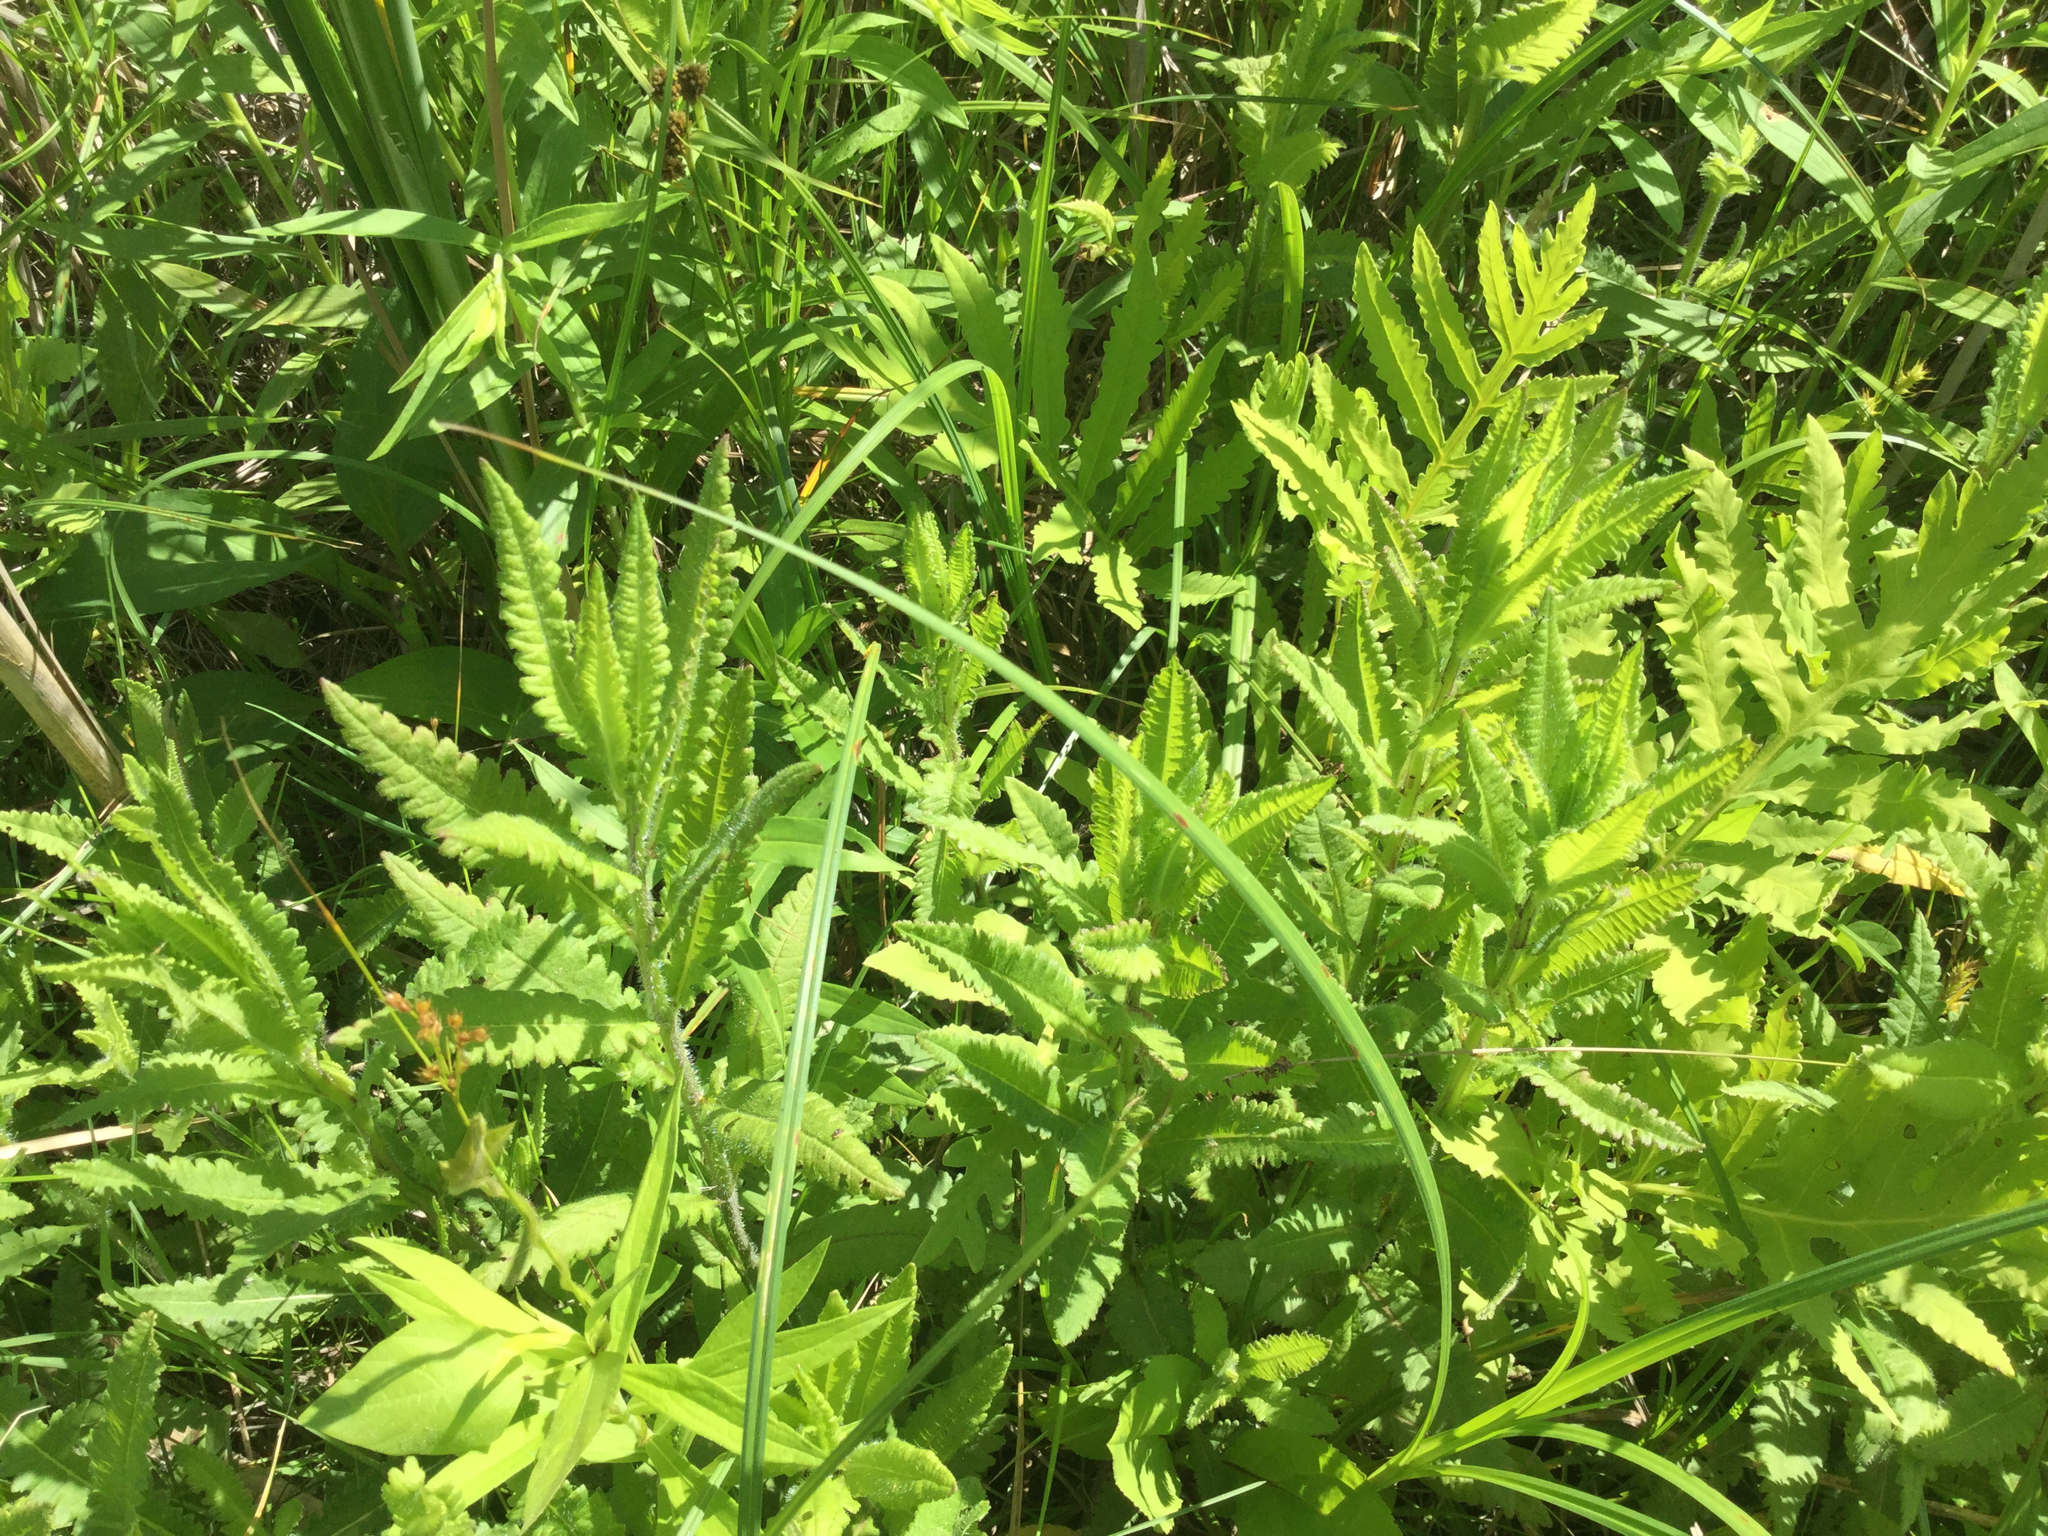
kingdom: Plantae
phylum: Tracheophyta
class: Magnoliopsida
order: Lamiales
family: Orobanchaceae
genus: Pedicularis
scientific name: Pedicularis lanceolata
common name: Swamp lousewort
